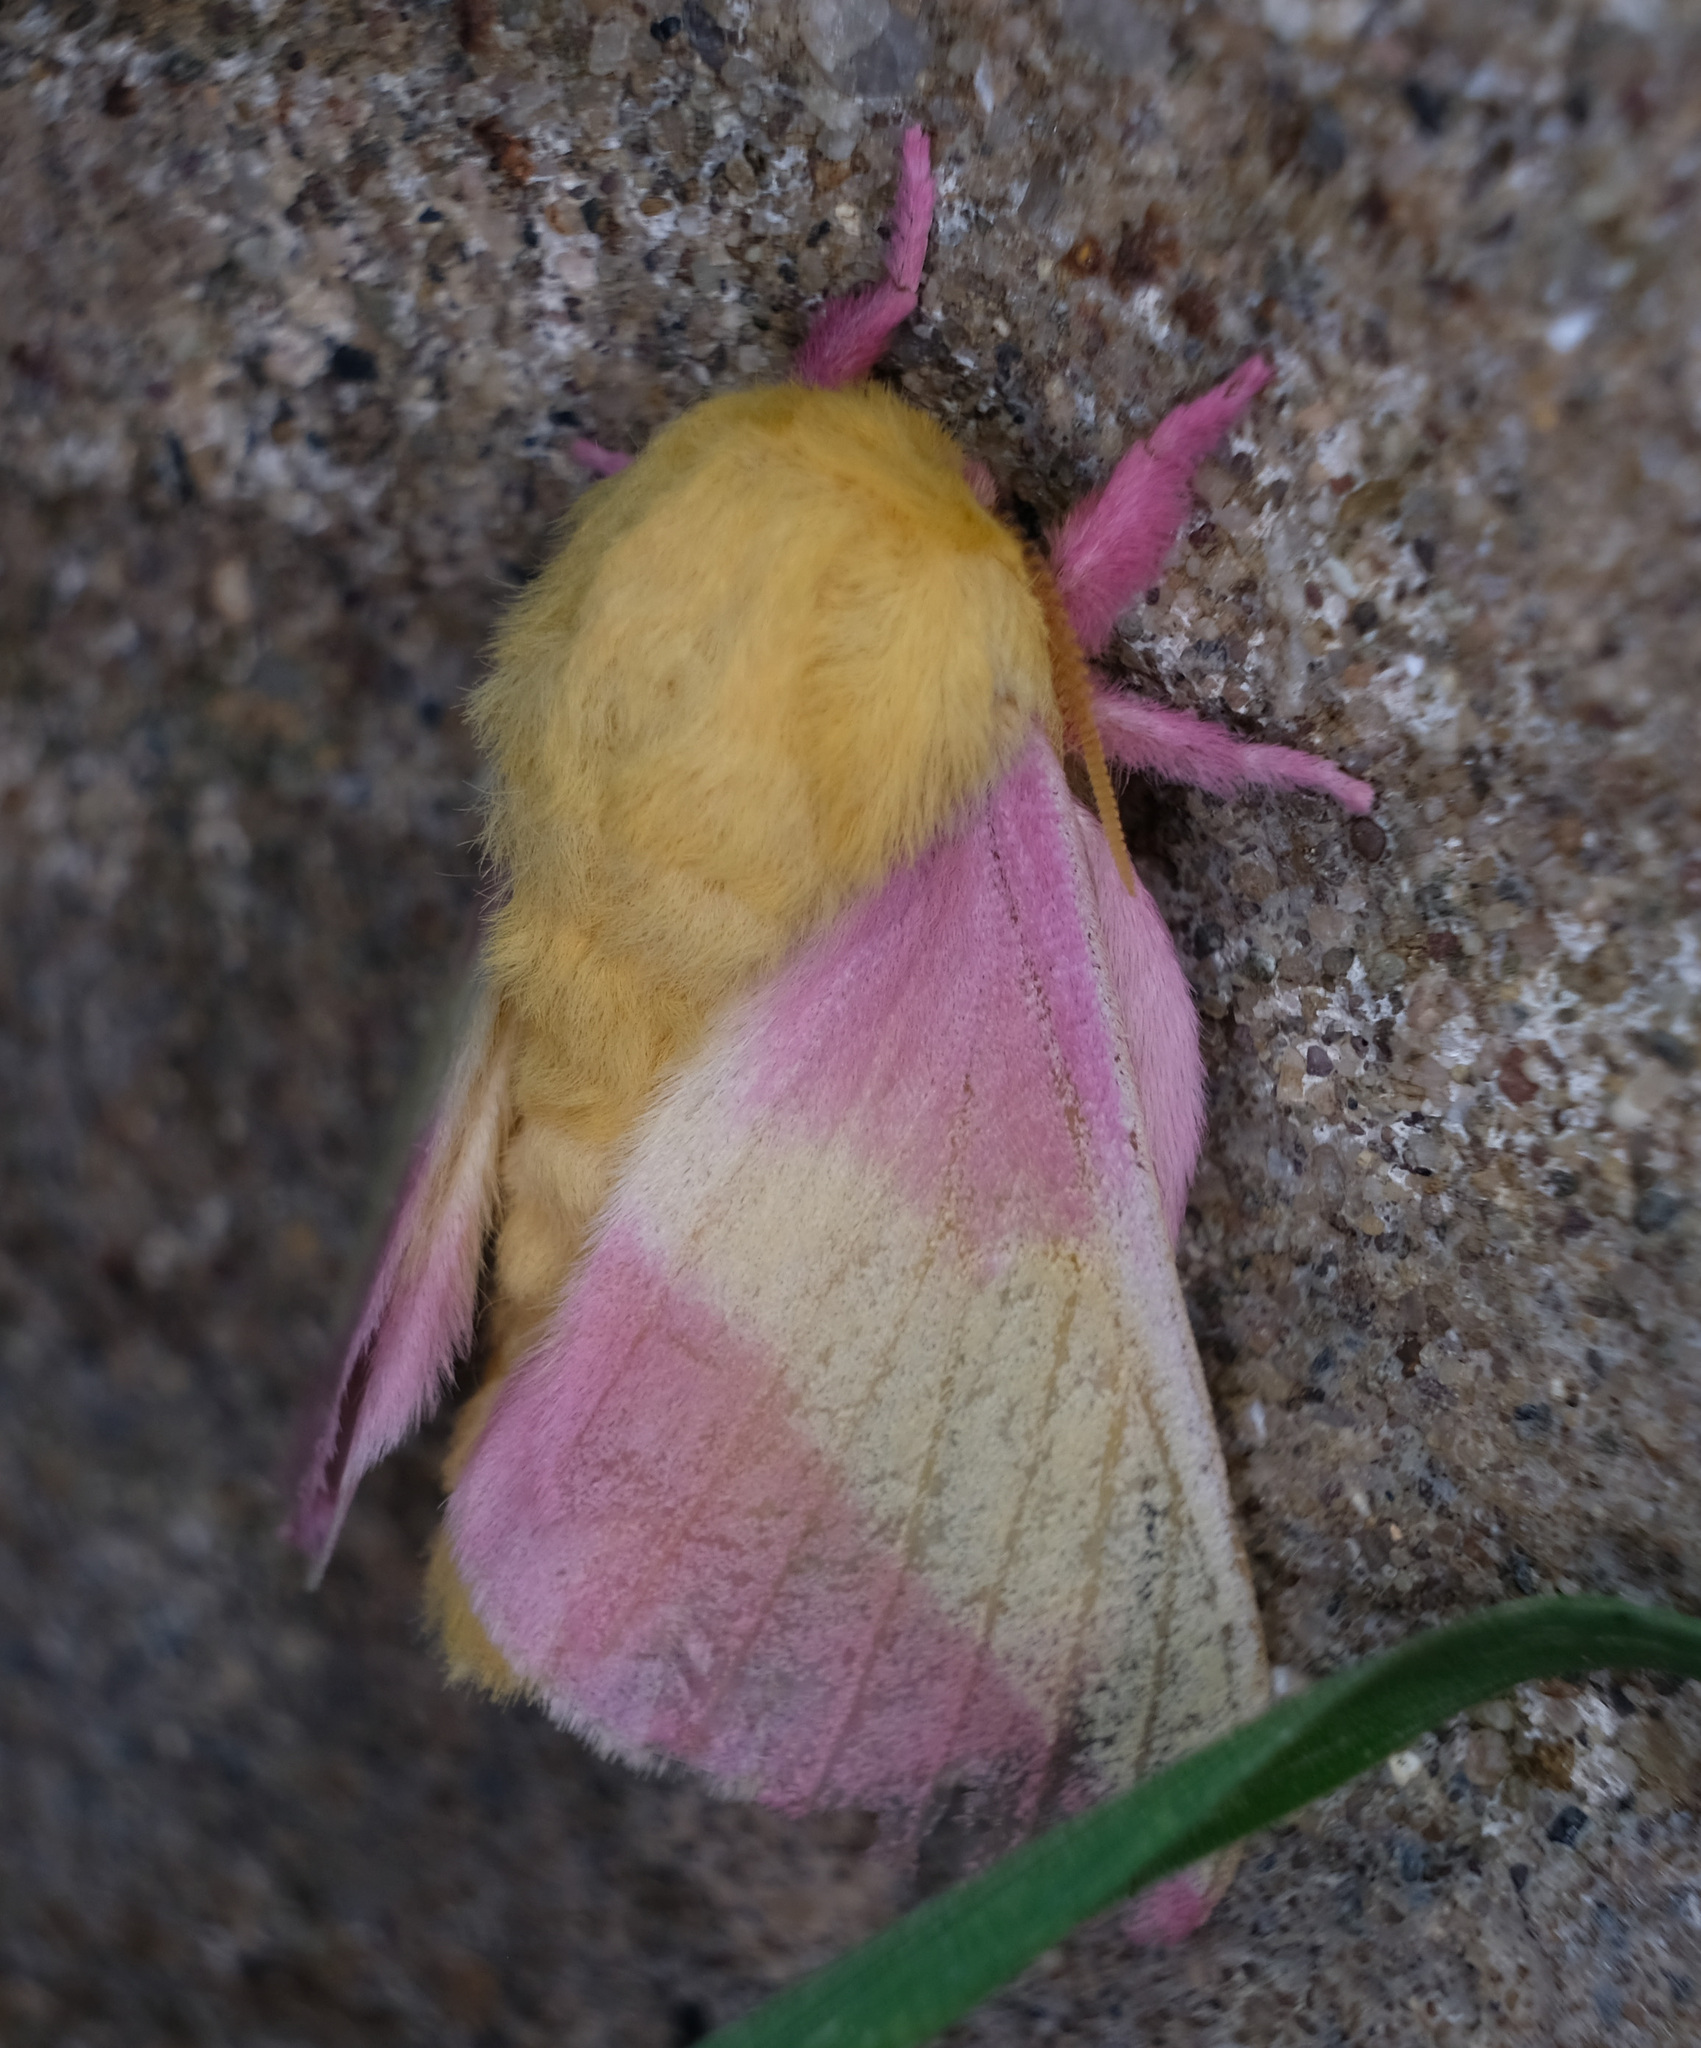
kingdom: Animalia
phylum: Arthropoda
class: Insecta
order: Lepidoptera
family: Saturniidae
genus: Dryocampa
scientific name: Dryocampa rubicunda
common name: Rosy maple moth
